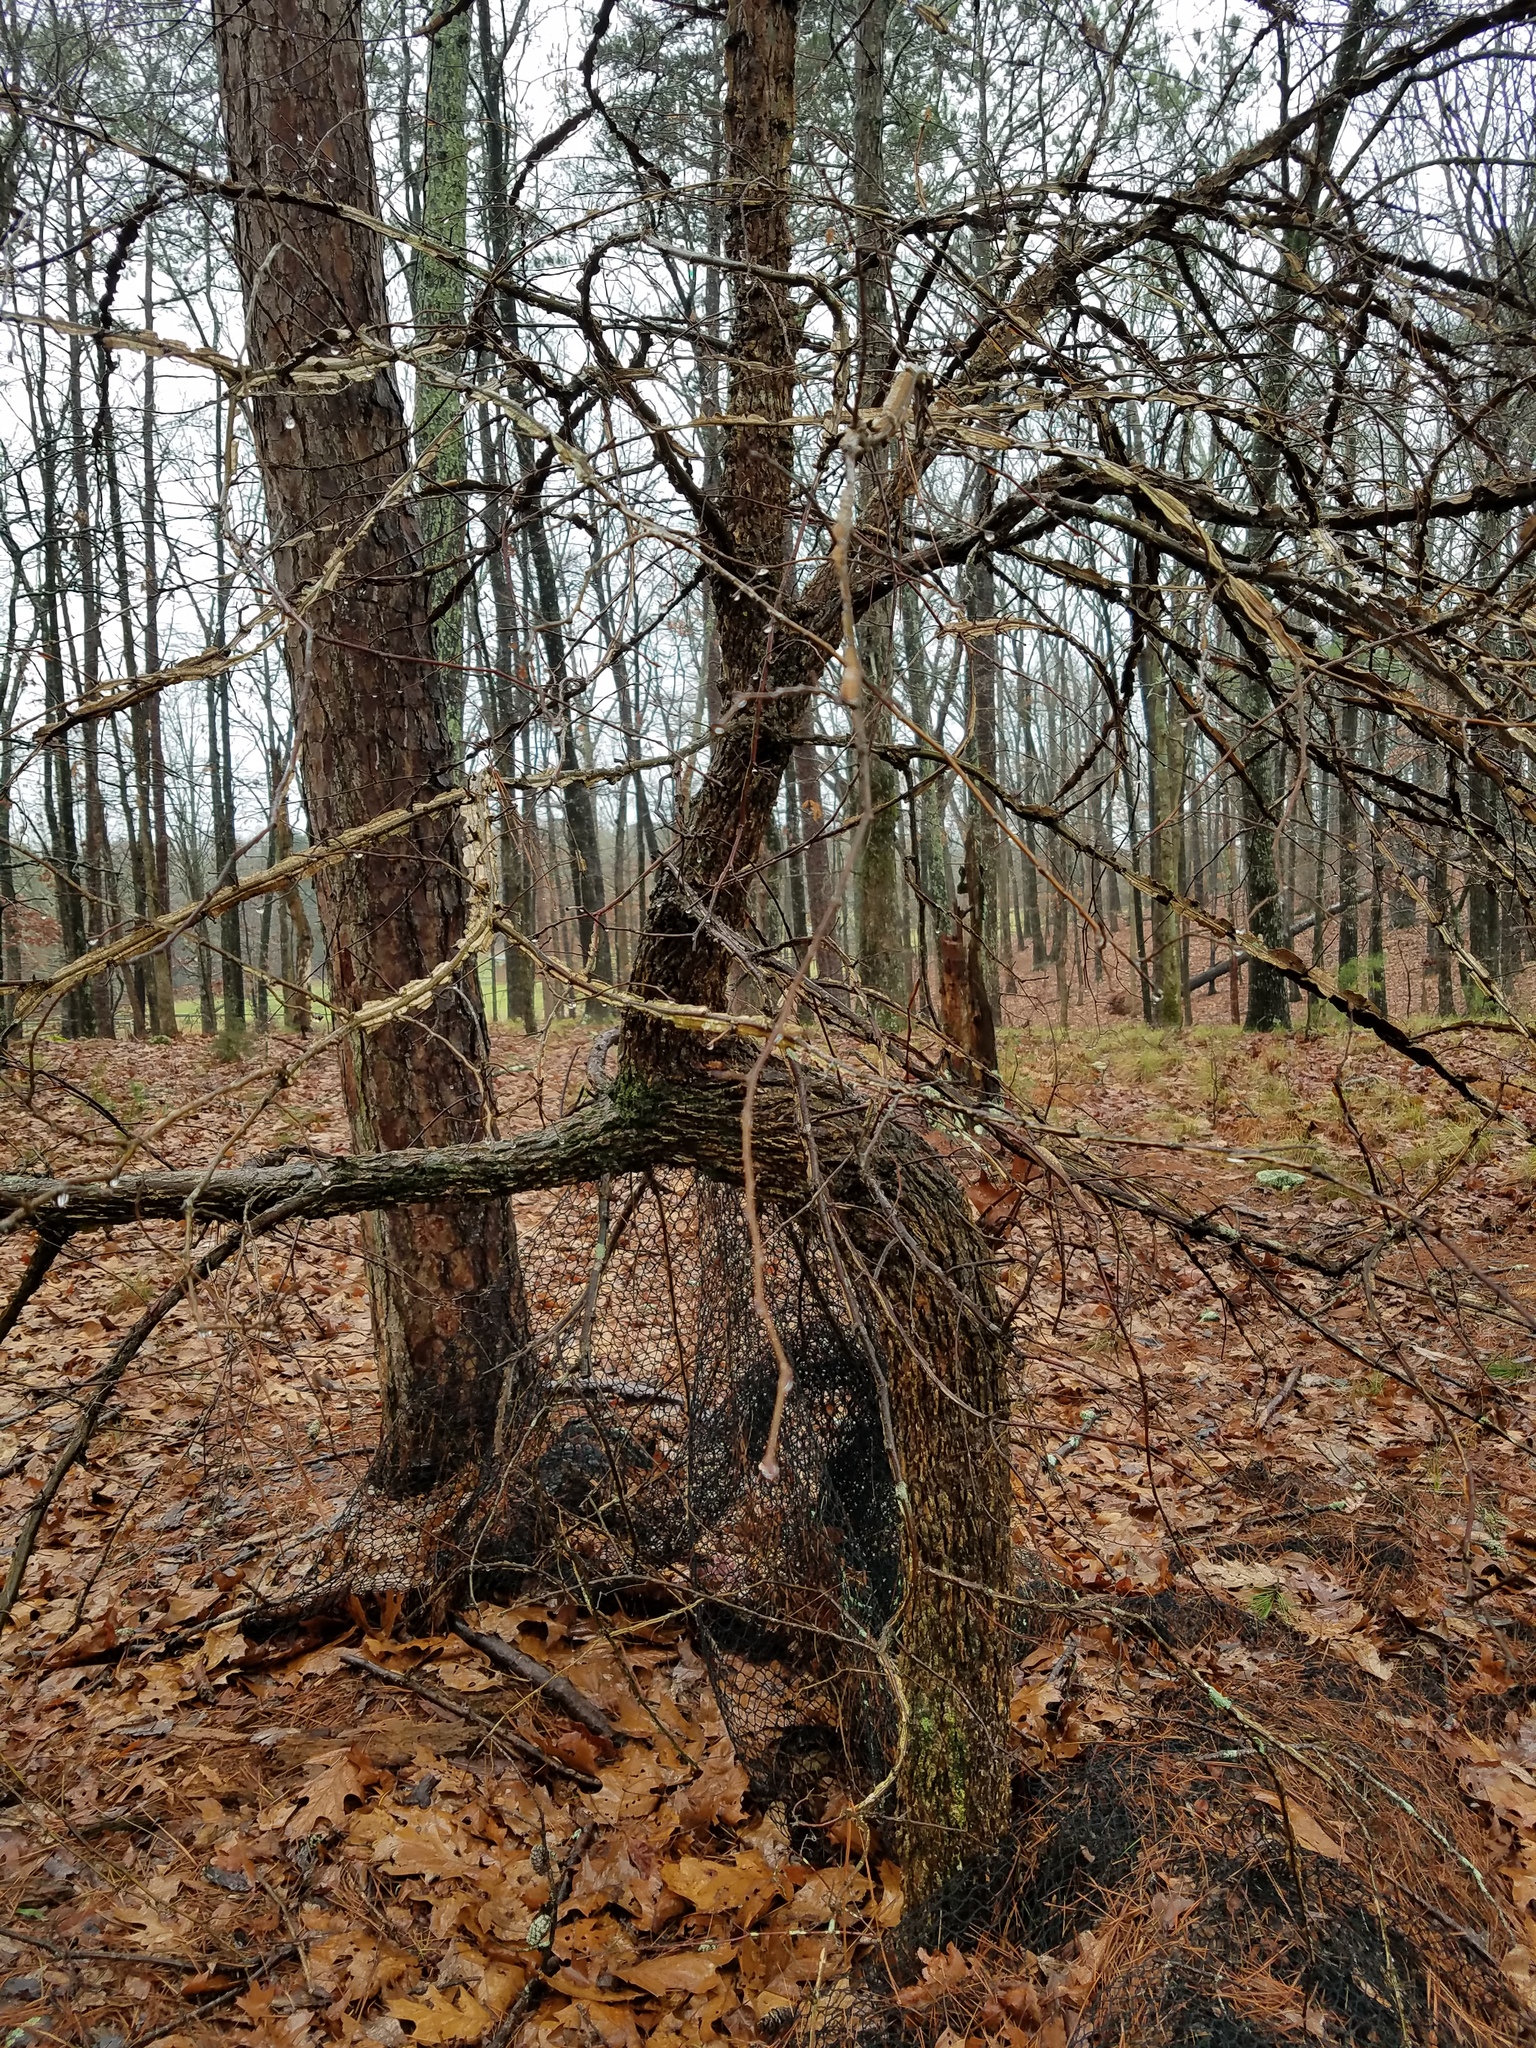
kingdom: Plantae
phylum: Tracheophyta
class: Magnoliopsida
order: Rosales
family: Ulmaceae
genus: Ulmus
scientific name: Ulmus alata
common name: Winged elm
